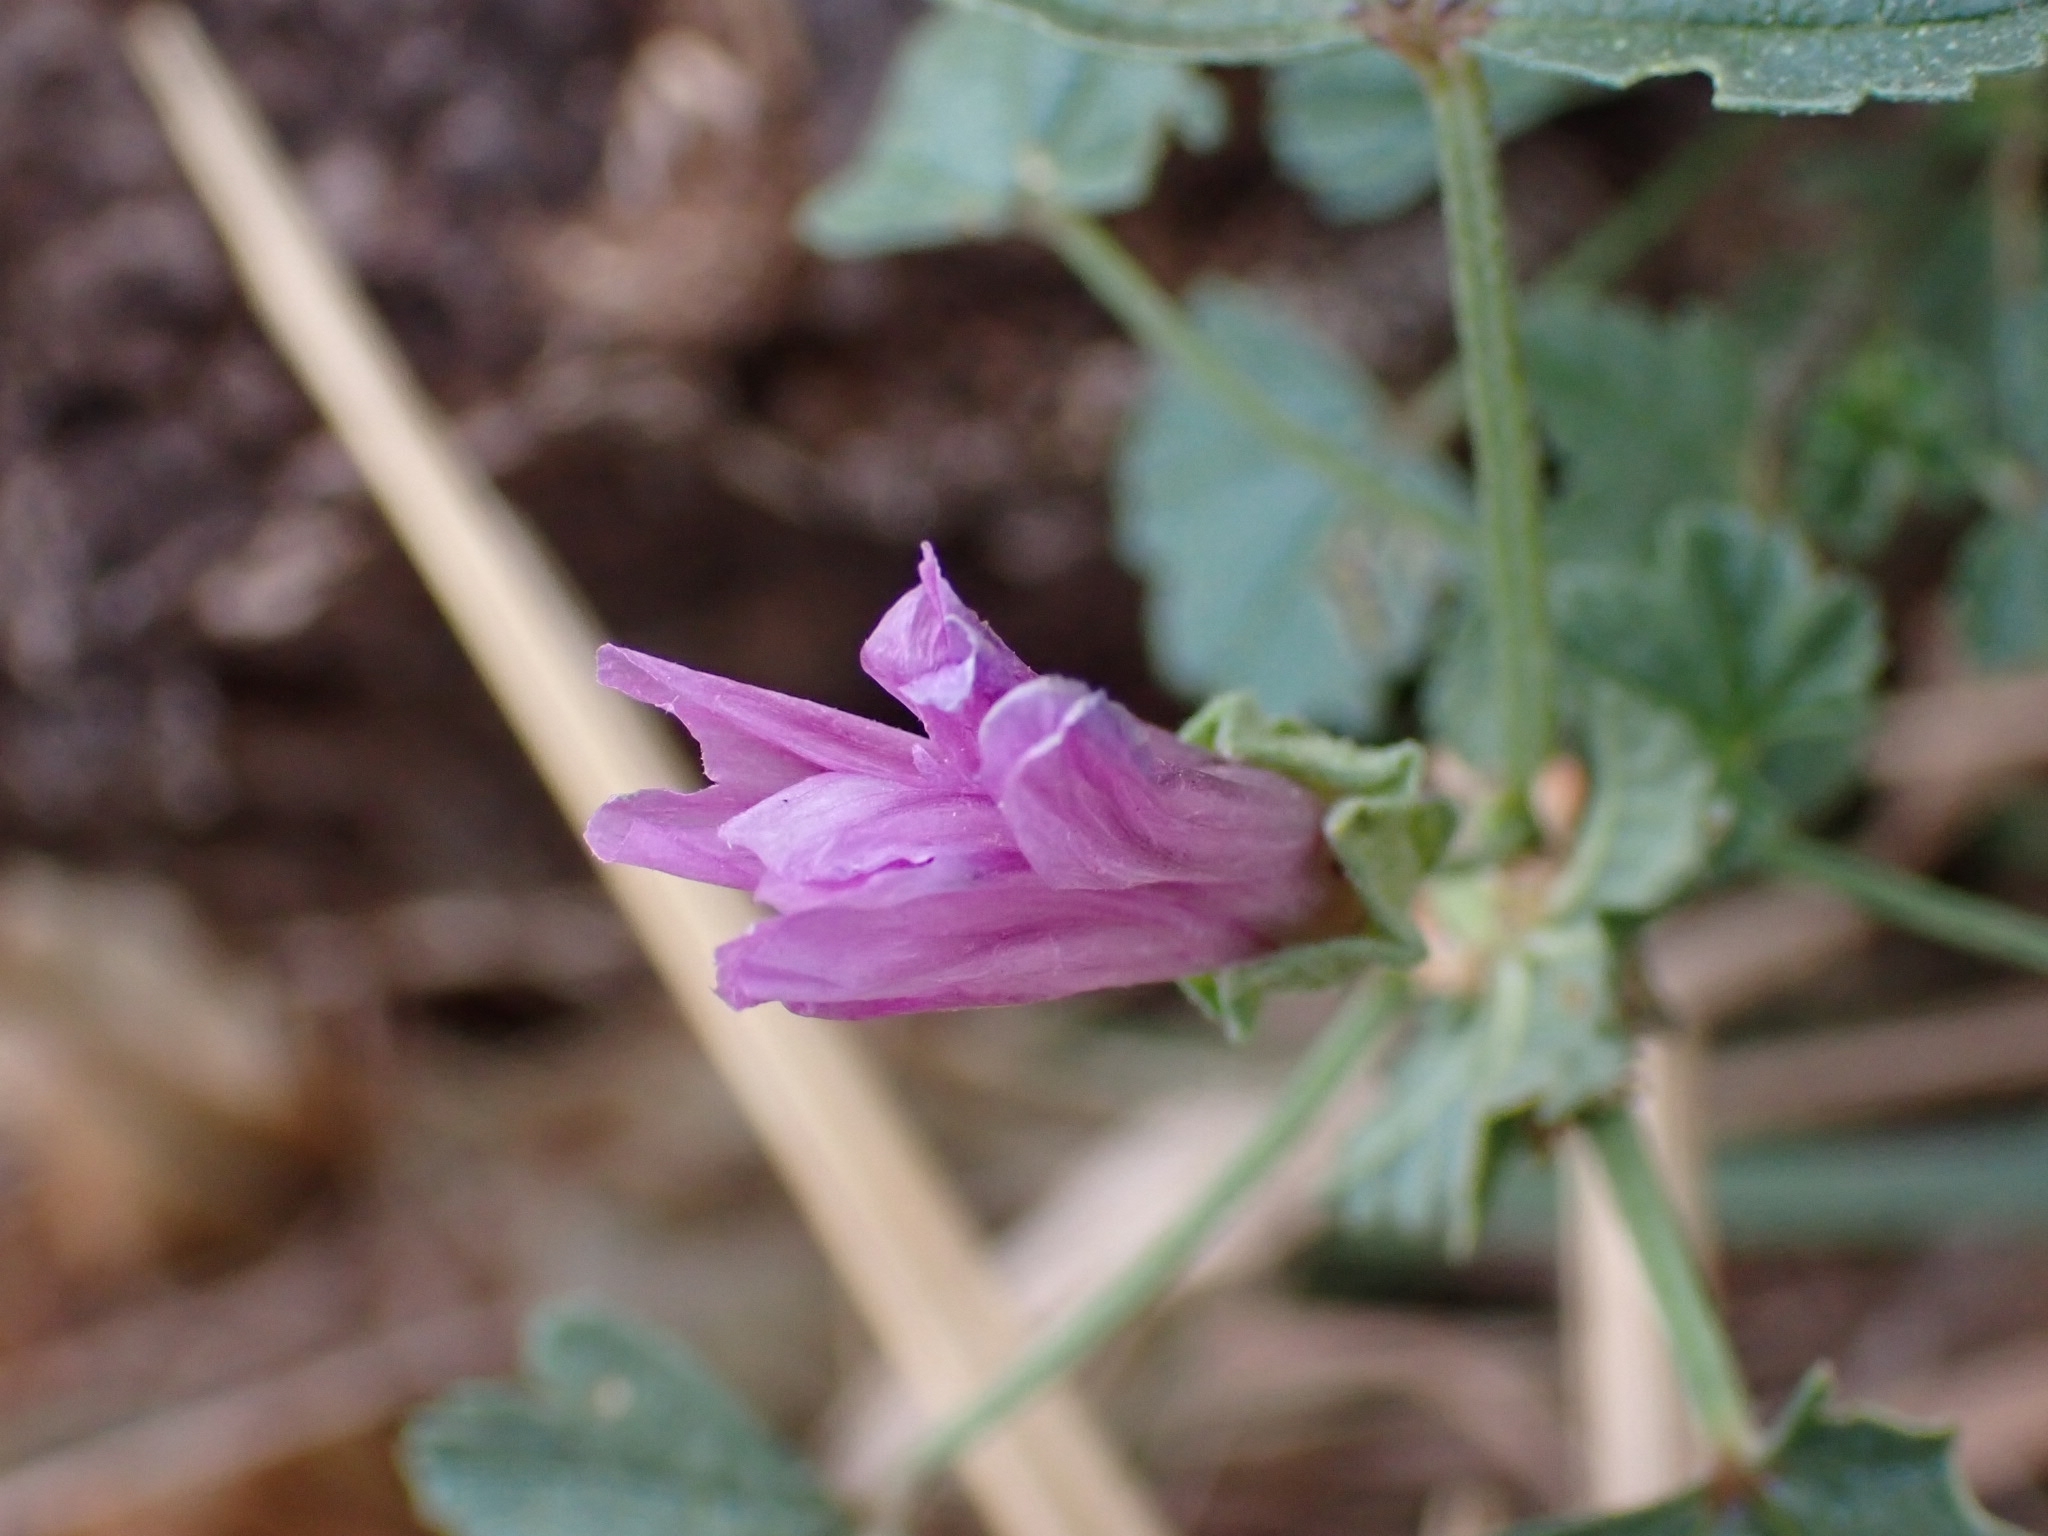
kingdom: Plantae
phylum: Tracheophyta
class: Magnoliopsida
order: Malvales
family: Malvaceae
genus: Malva
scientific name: Malva sylvestris
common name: Common mallow
